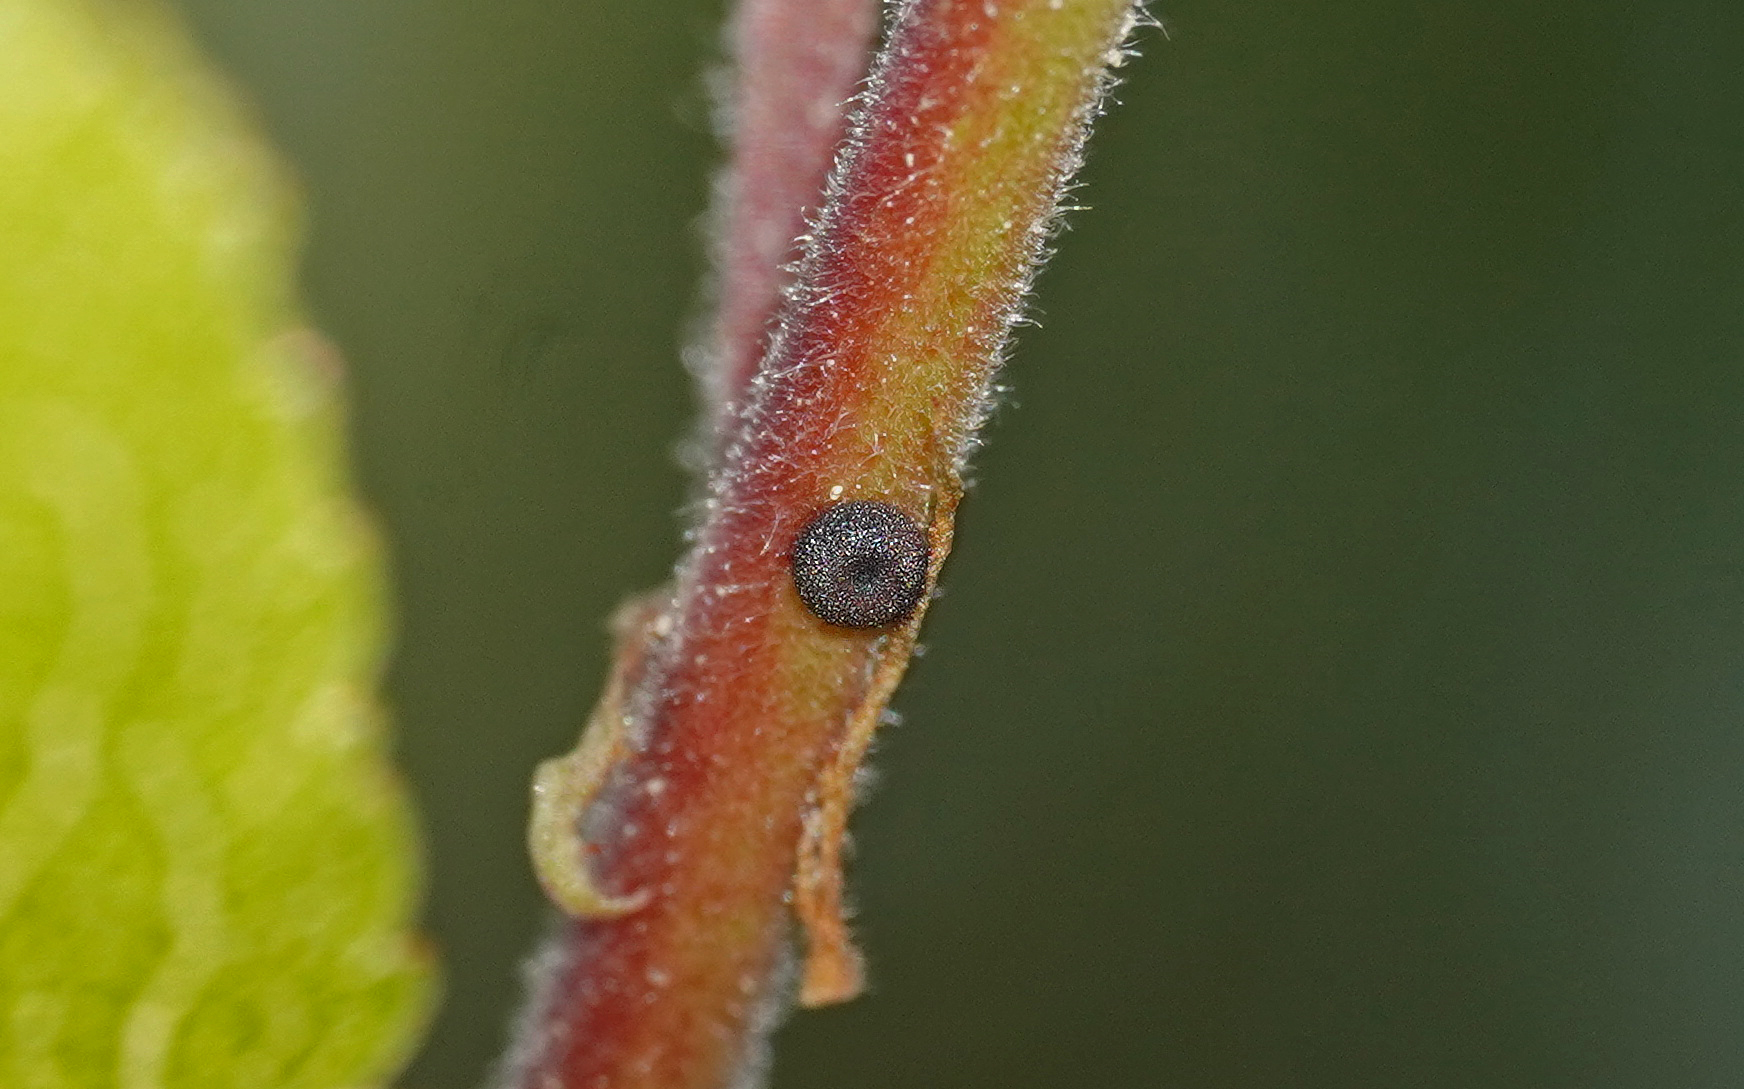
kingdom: Animalia
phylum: Arthropoda
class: Insecta
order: Lepidoptera
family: Lycaenidae
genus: Fixsenia
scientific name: Fixsenia pruni
